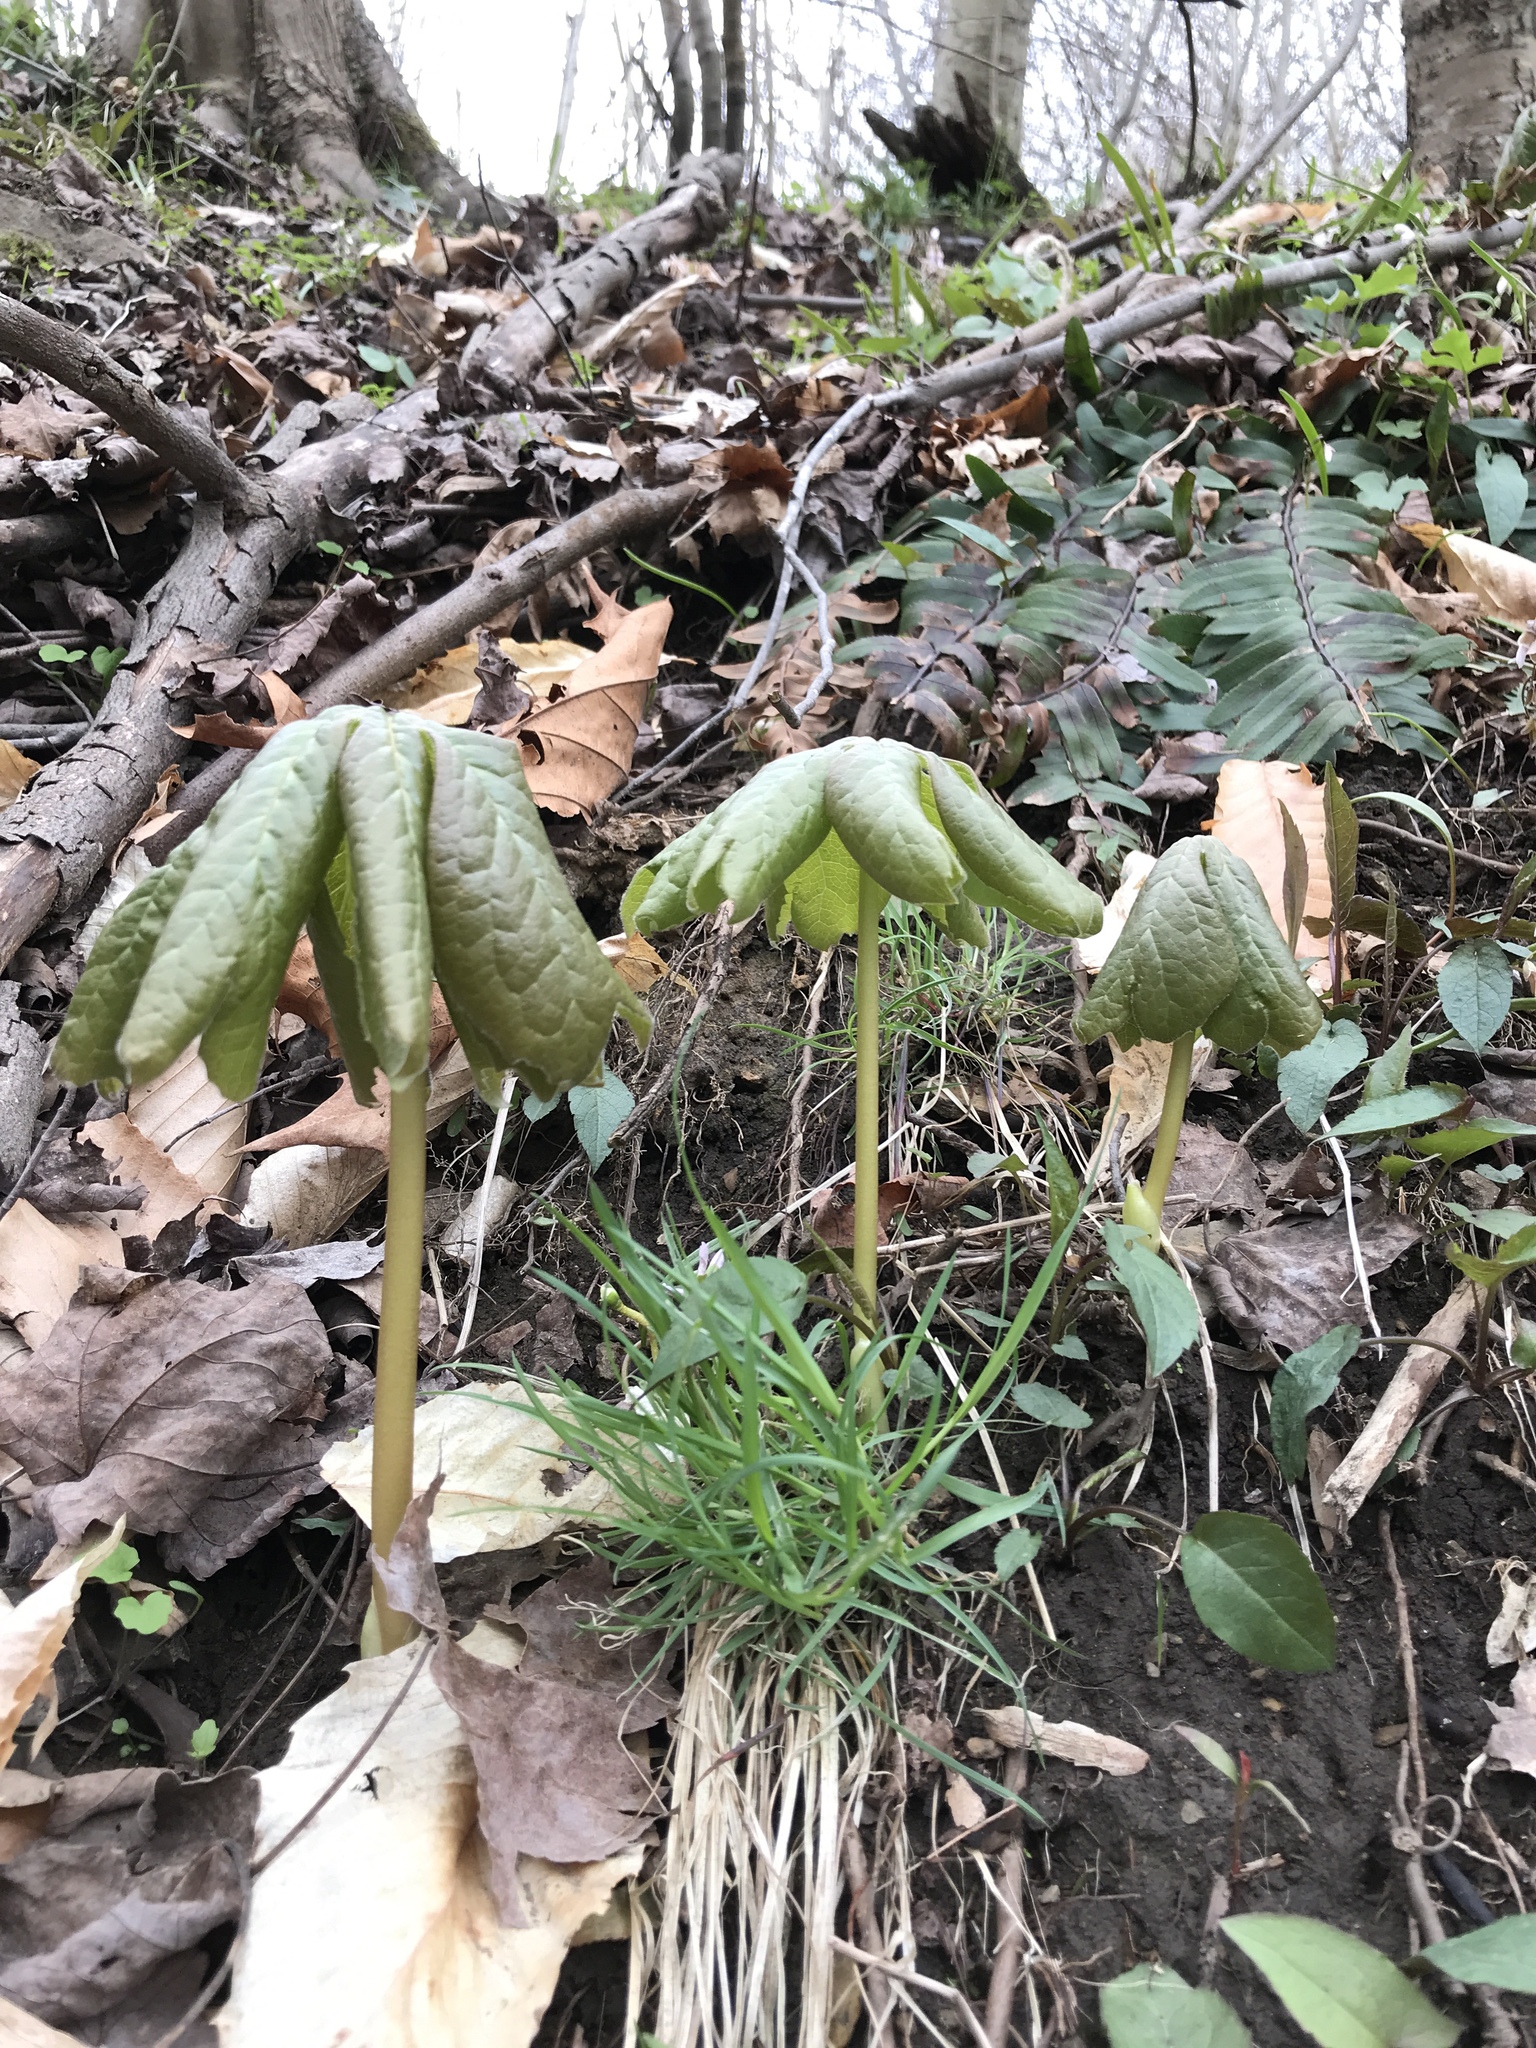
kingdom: Plantae
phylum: Tracheophyta
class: Magnoliopsida
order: Ranunculales
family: Berberidaceae
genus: Podophyllum
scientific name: Podophyllum peltatum
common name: Wild mandrake
